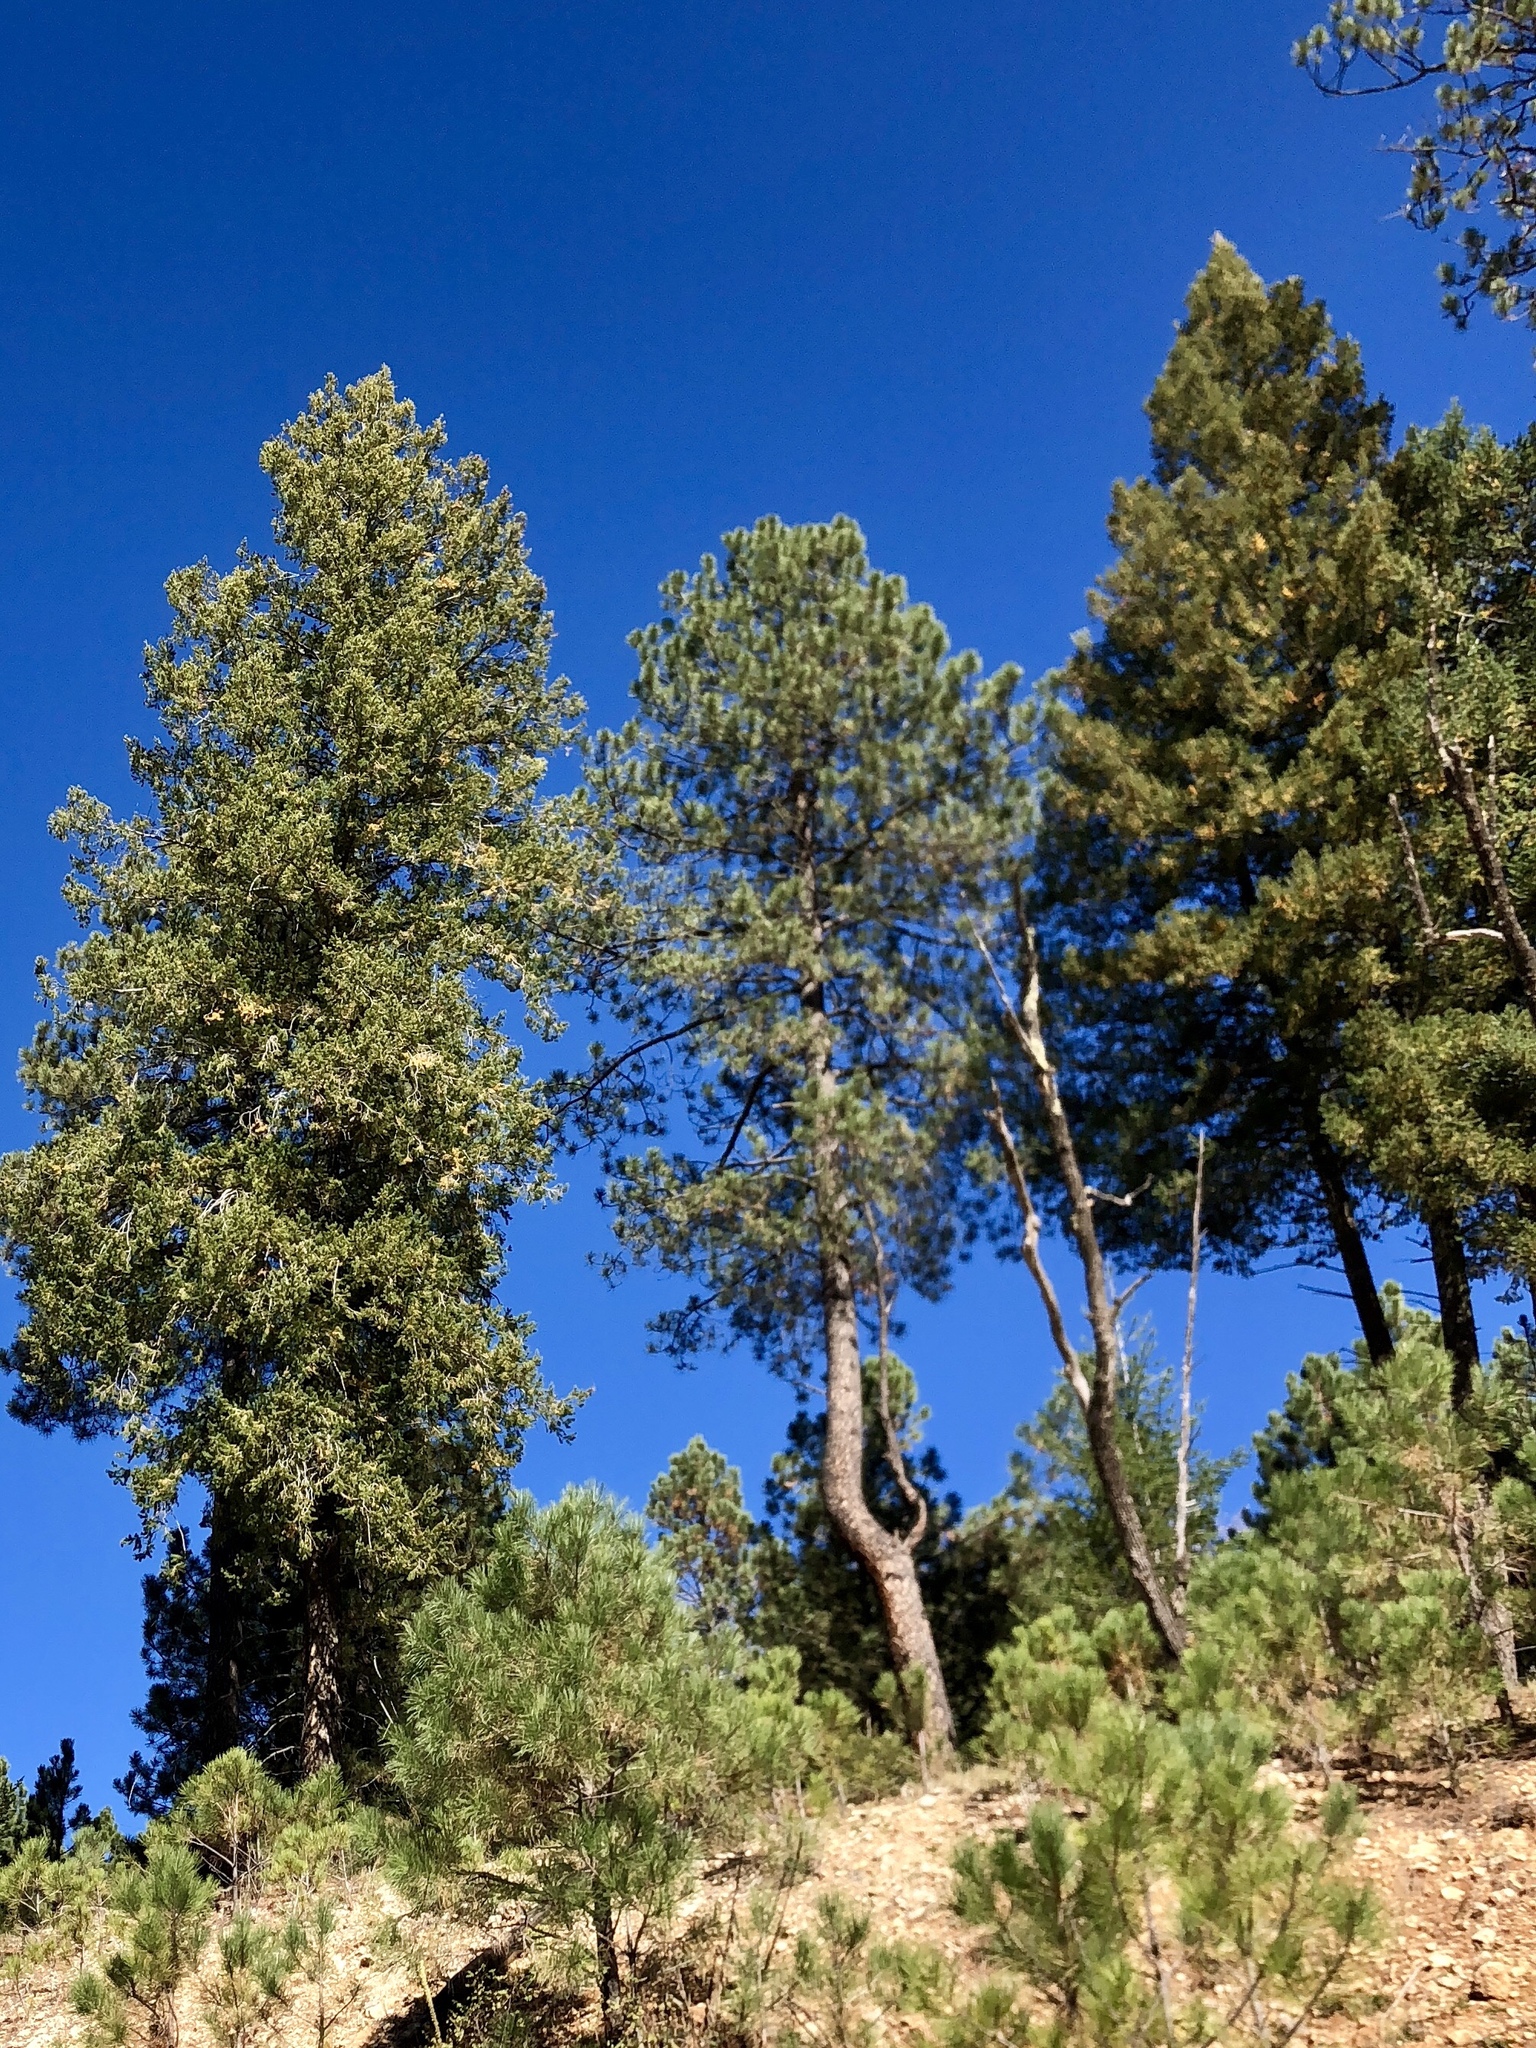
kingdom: Plantae
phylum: Tracheophyta
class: Pinopsida
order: Pinales
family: Pinaceae
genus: Pinus
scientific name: Pinus ponderosa
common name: Western yellow-pine
